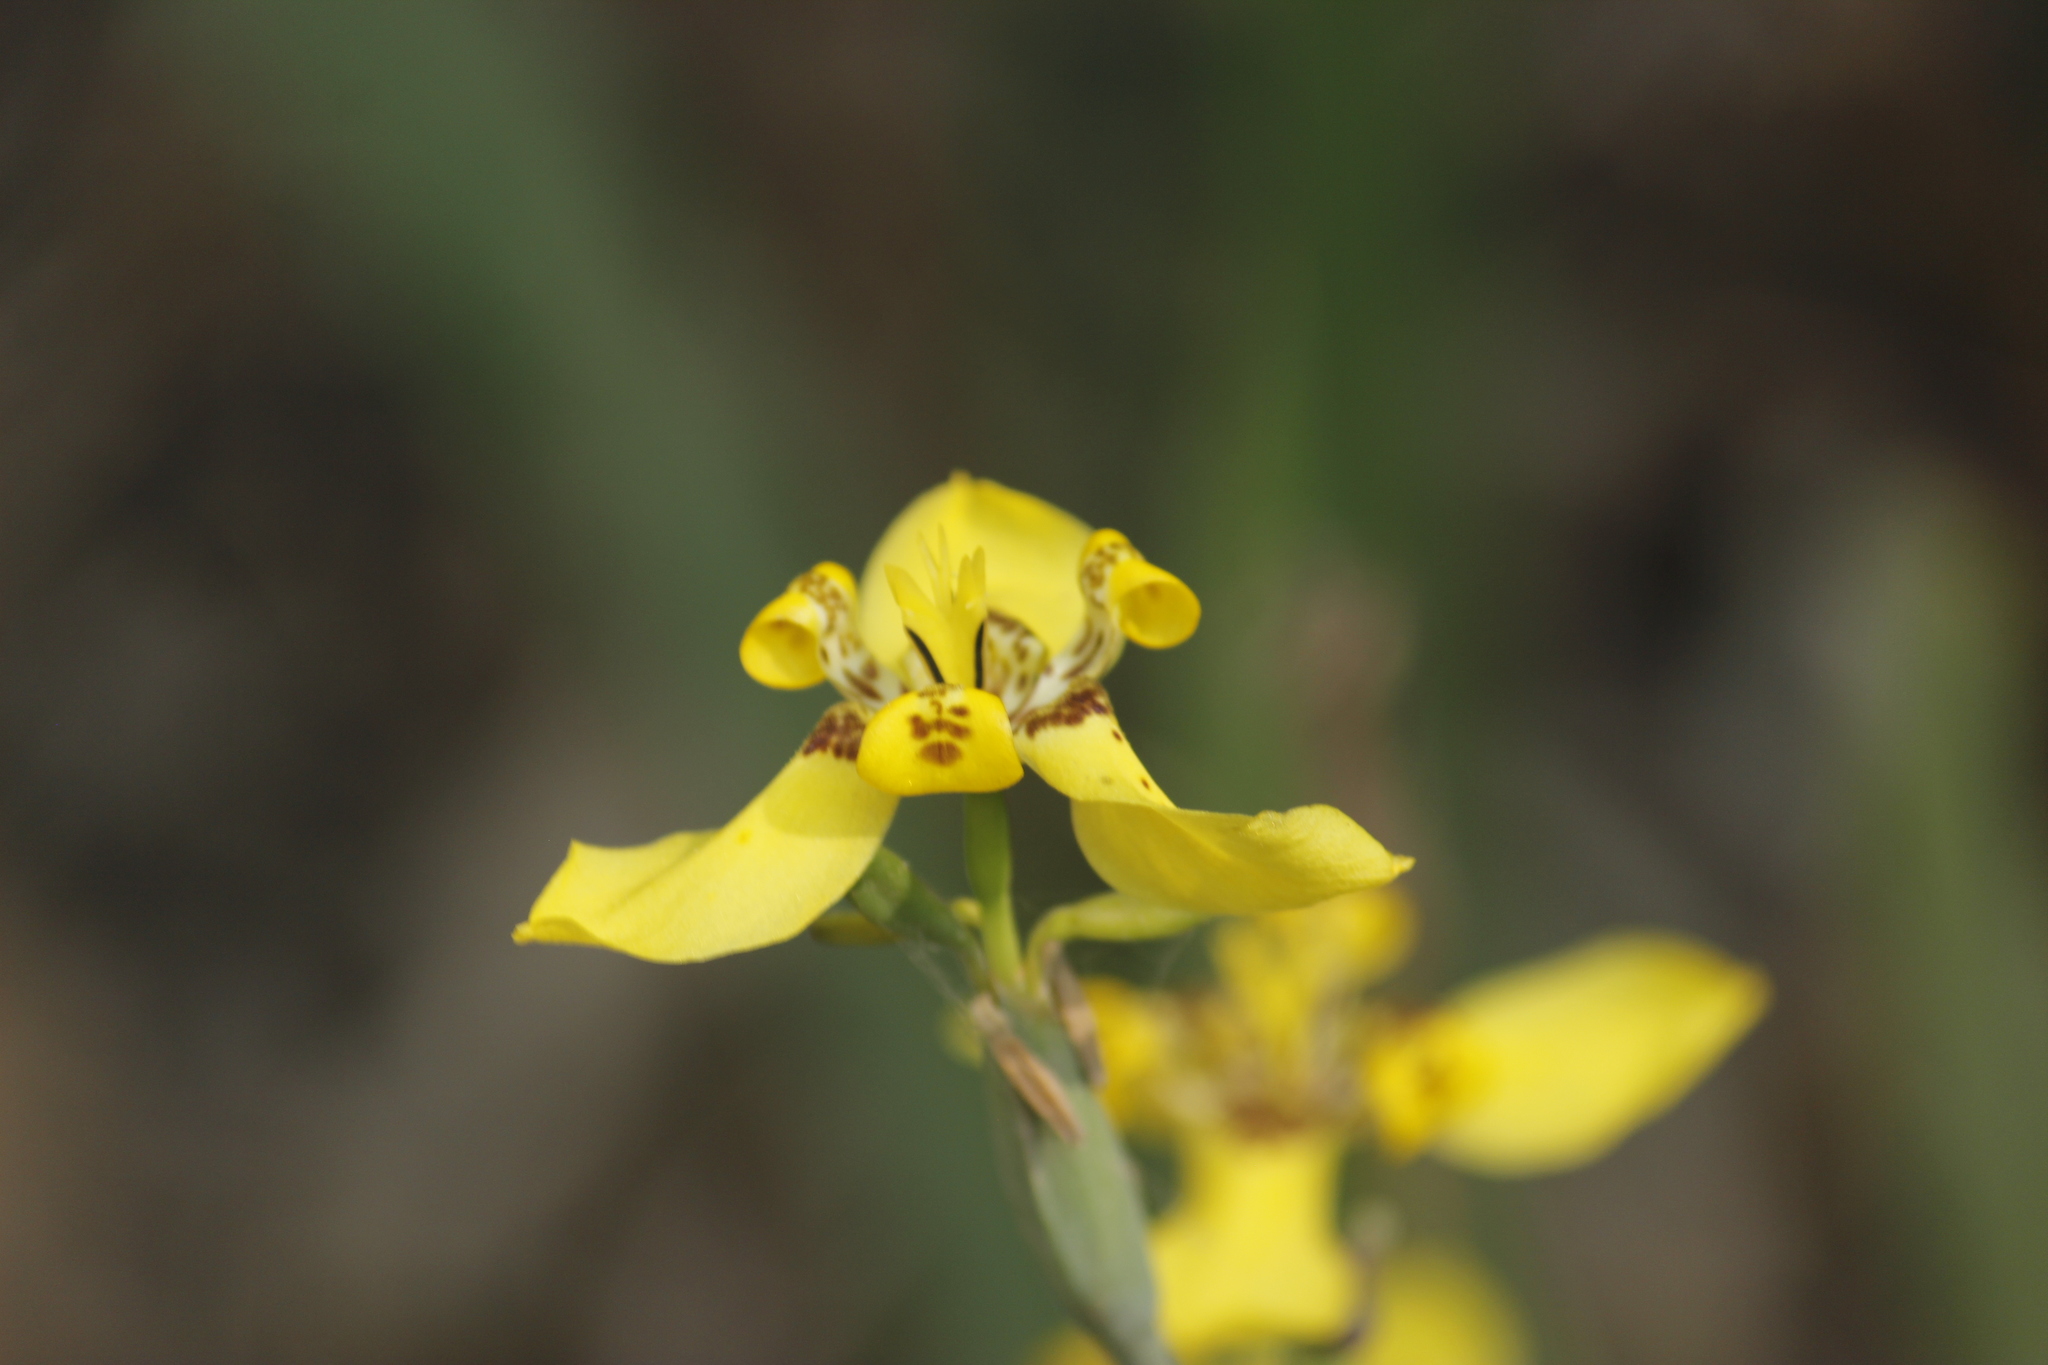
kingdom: Plantae
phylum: Tracheophyta
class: Liliopsida
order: Asparagales
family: Iridaceae
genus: Trimezia
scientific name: Trimezia steyermarkii
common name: Trimezia
